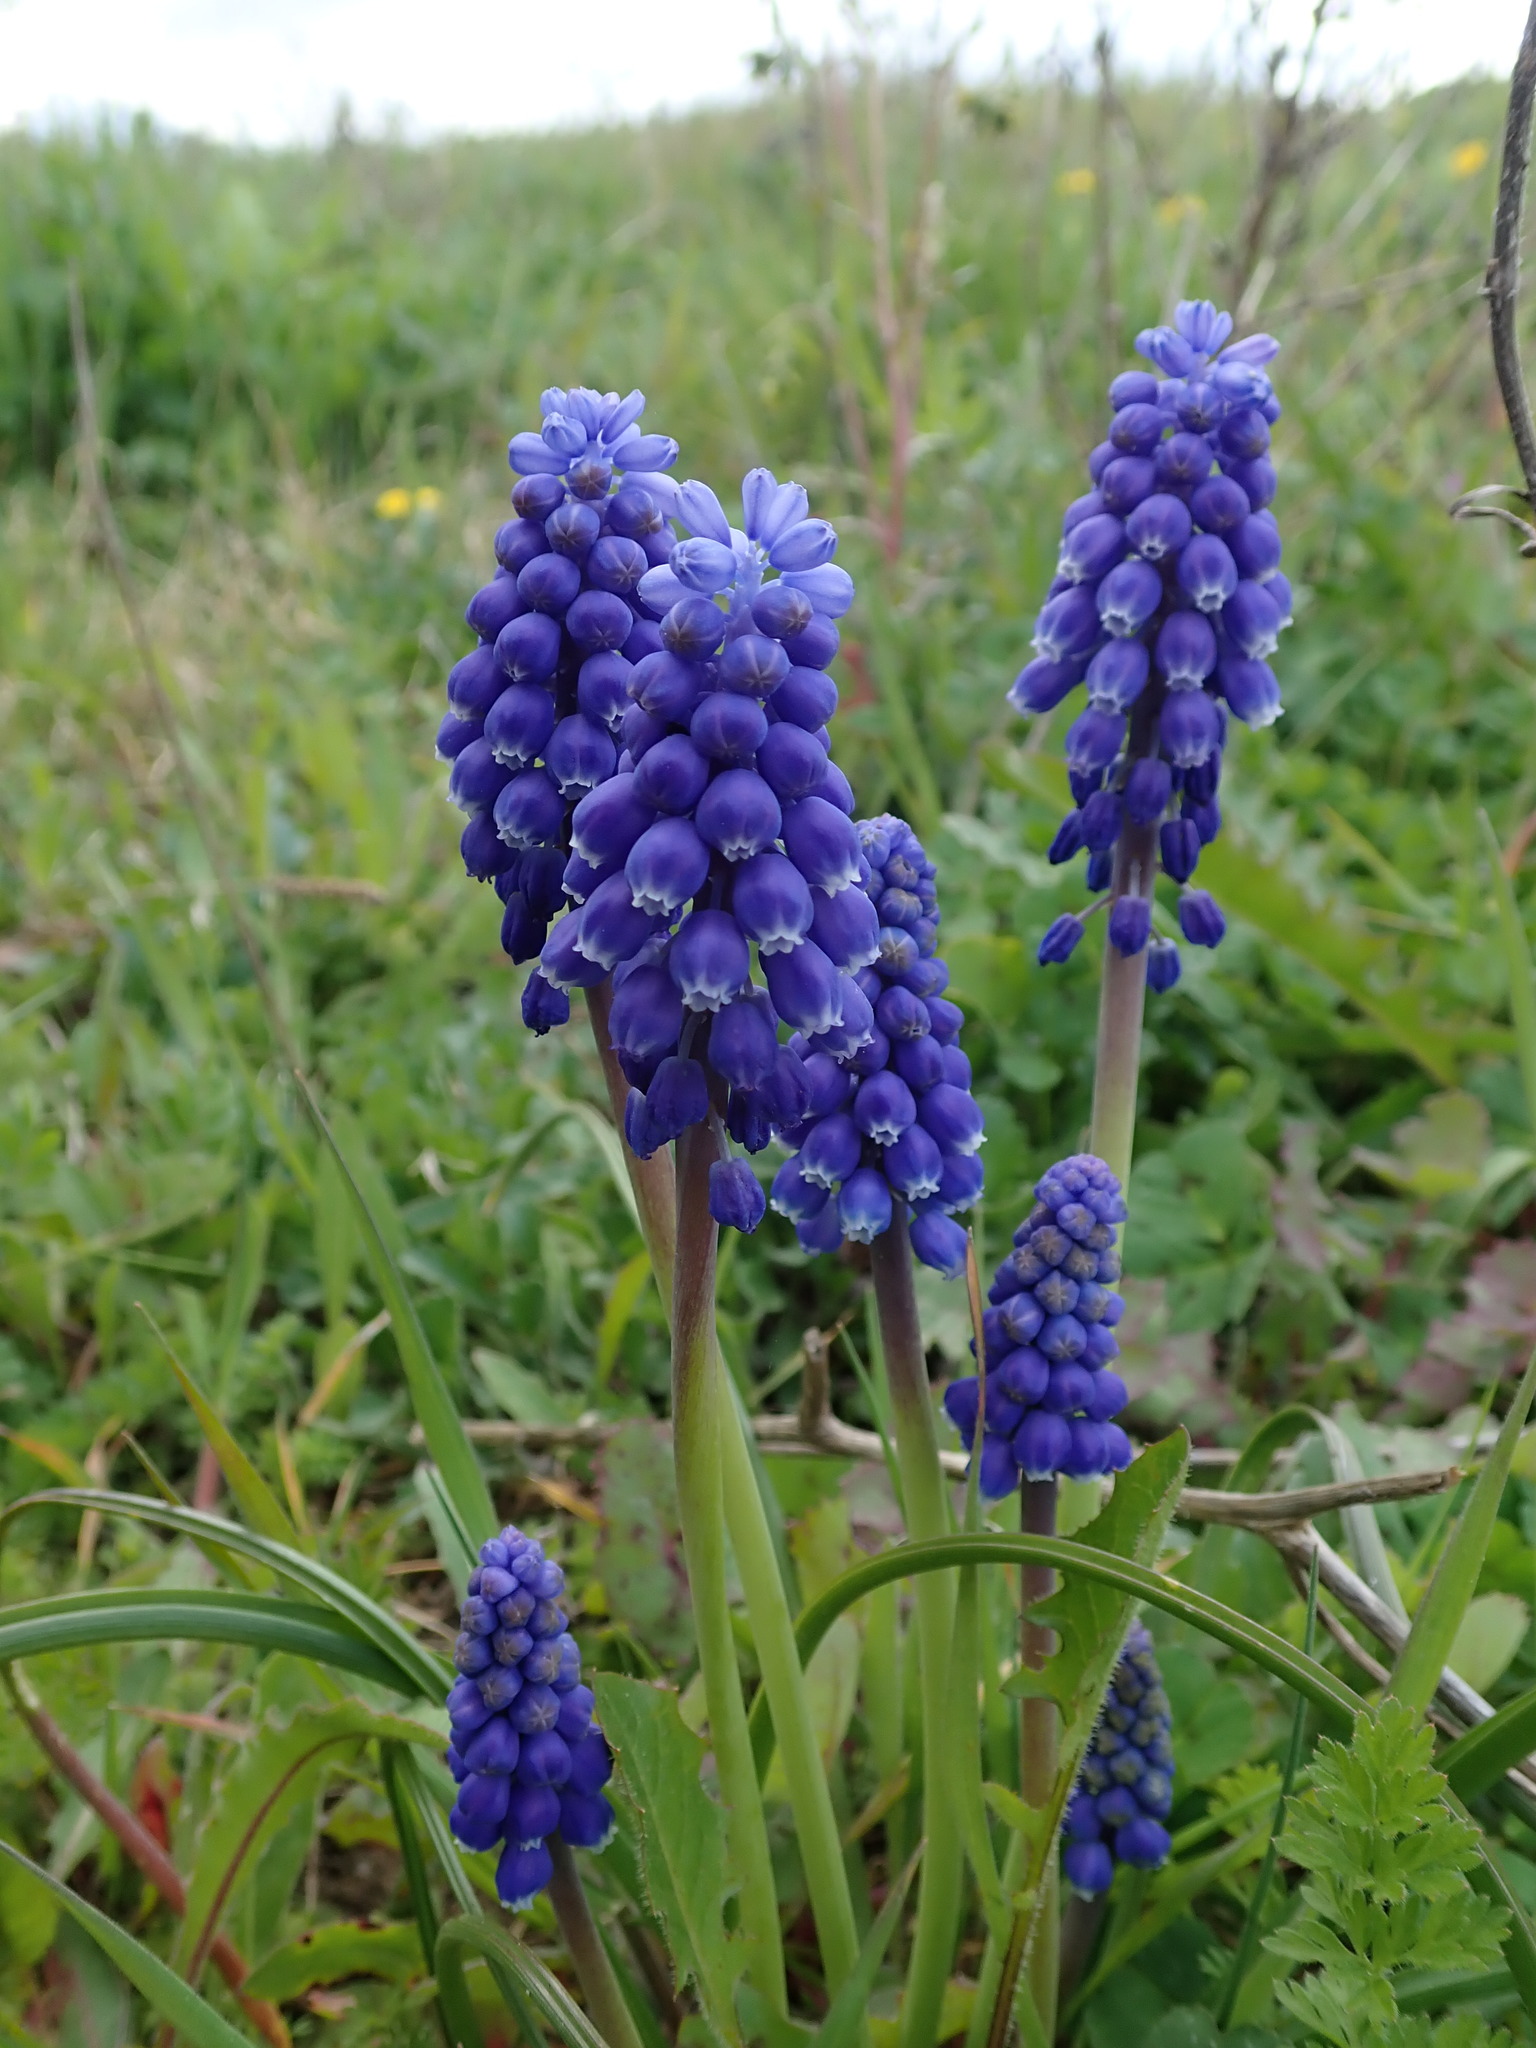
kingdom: Plantae
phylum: Tracheophyta
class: Liliopsida
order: Asparagales
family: Asparagaceae
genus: Muscari
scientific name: Muscari armeniacum
